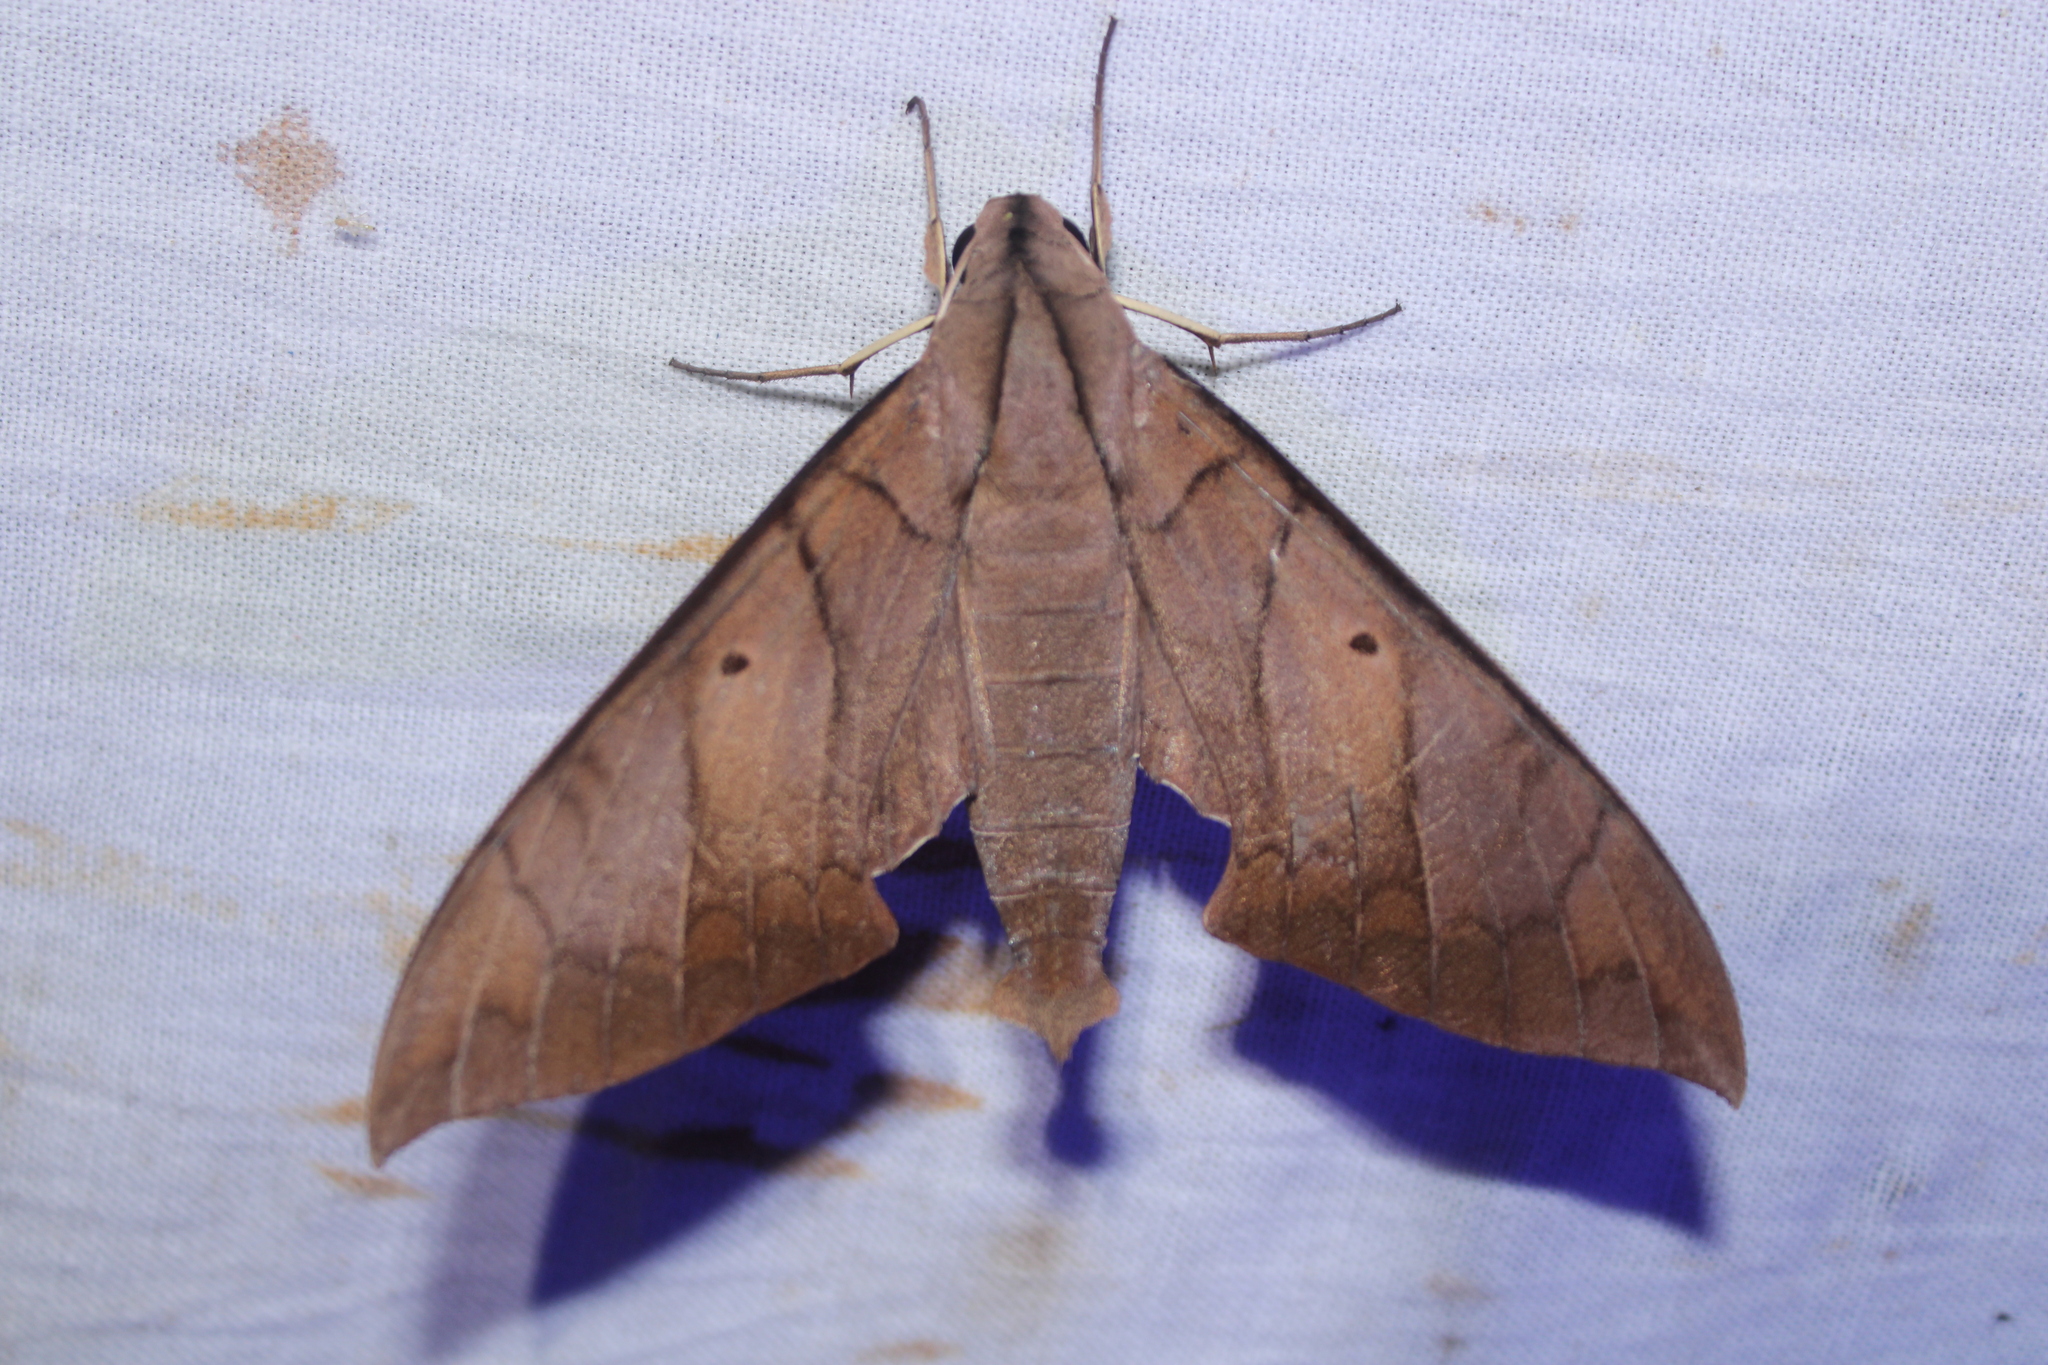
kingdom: Animalia
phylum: Arthropoda
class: Insecta
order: Lepidoptera
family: Sphingidae
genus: Pachylia
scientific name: Pachylia darceta
